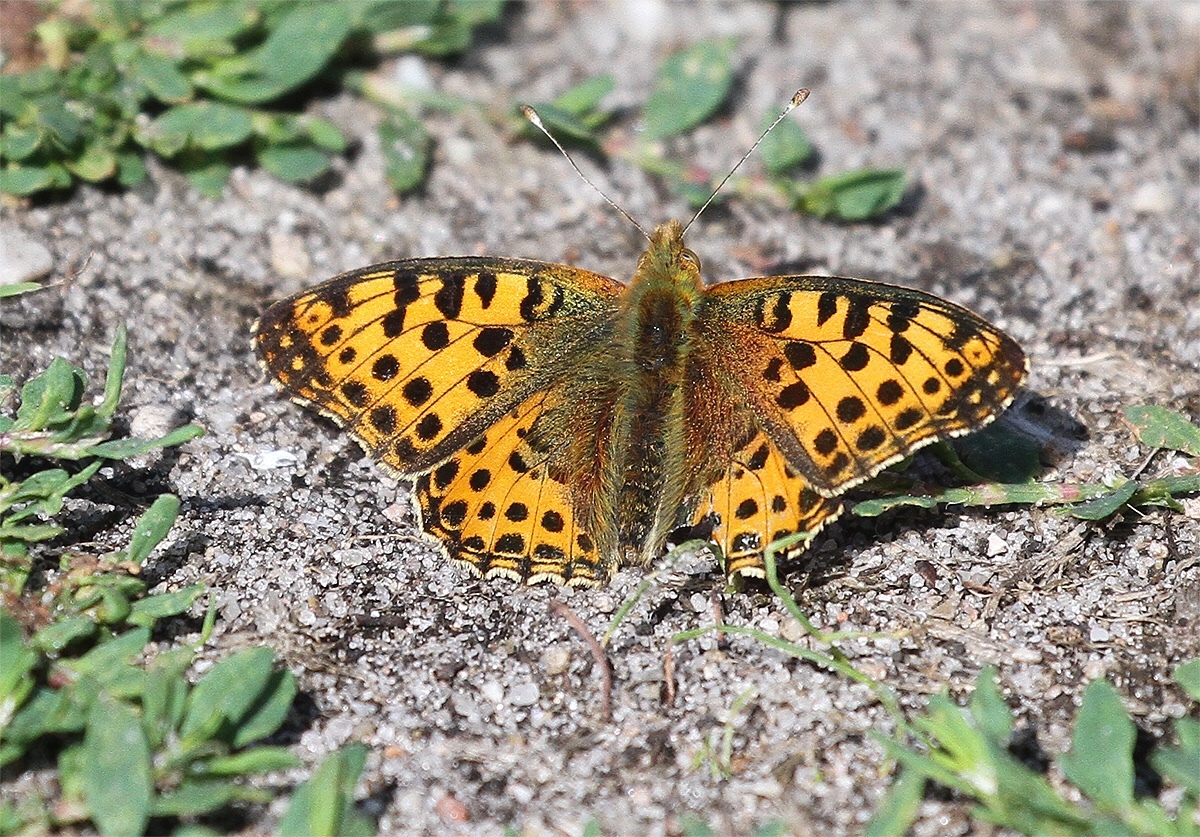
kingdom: Animalia
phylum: Arthropoda
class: Insecta
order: Lepidoptera
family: Nymphalidae
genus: Issoria
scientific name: Issoria lathonia
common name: Queen of spain fritillary
